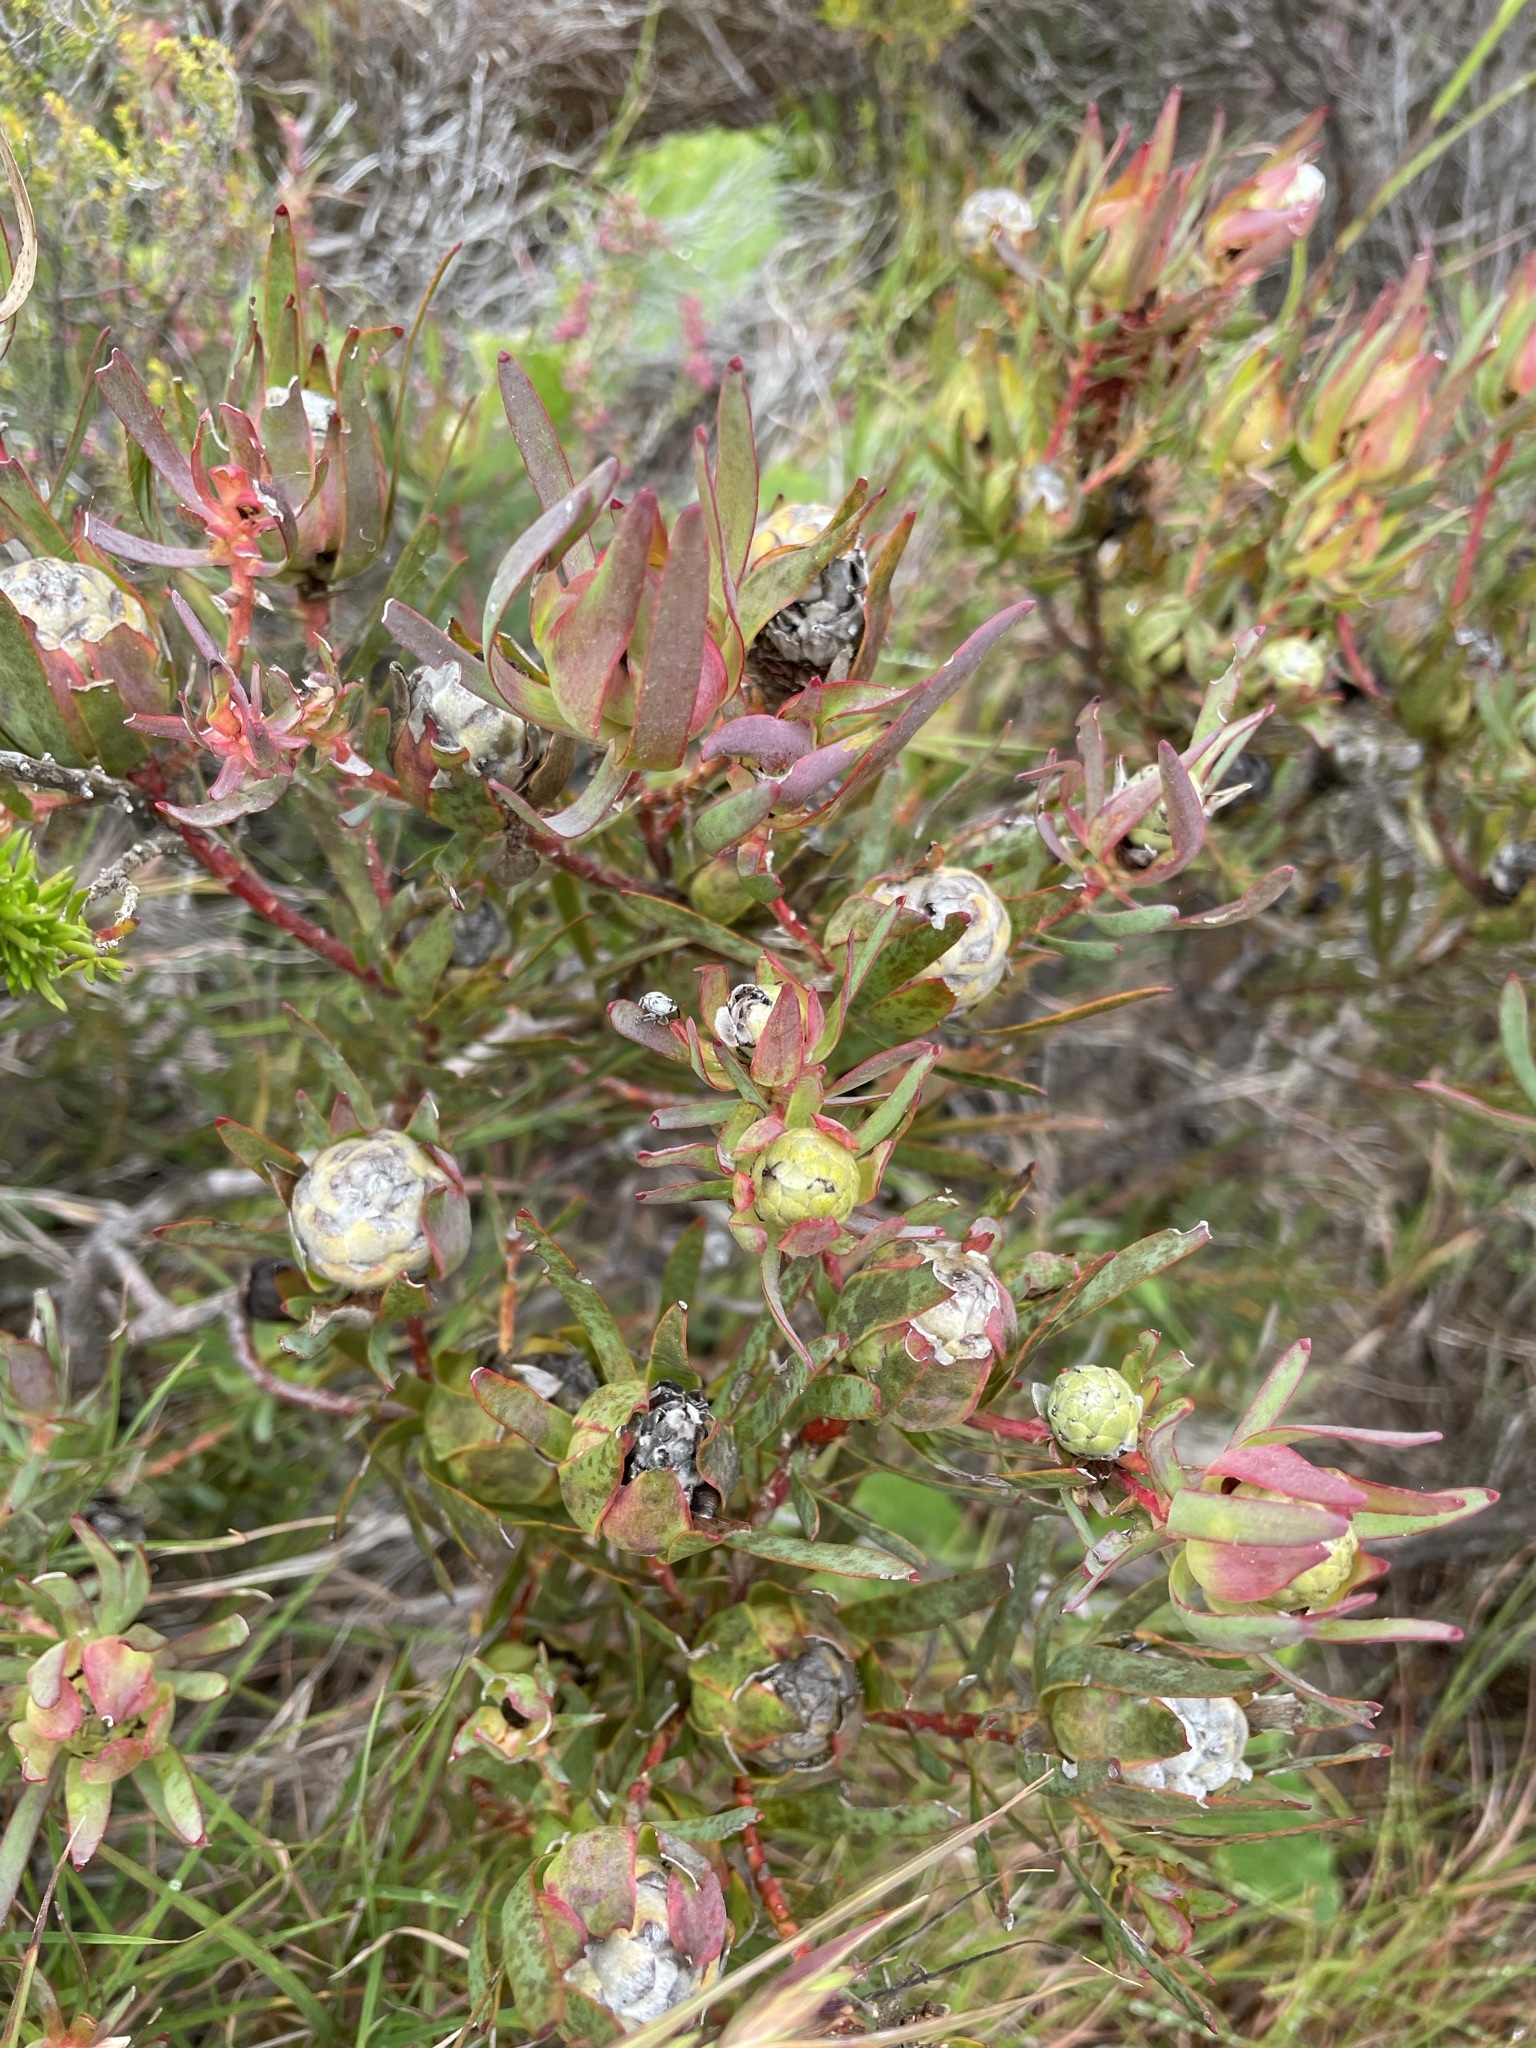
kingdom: Plantae
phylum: Tracheophyta
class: Magnoliopsida
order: Proteales
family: Proteaceae
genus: Leucadendron
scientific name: Leucadendron salignum
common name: Common sunshine conebush
